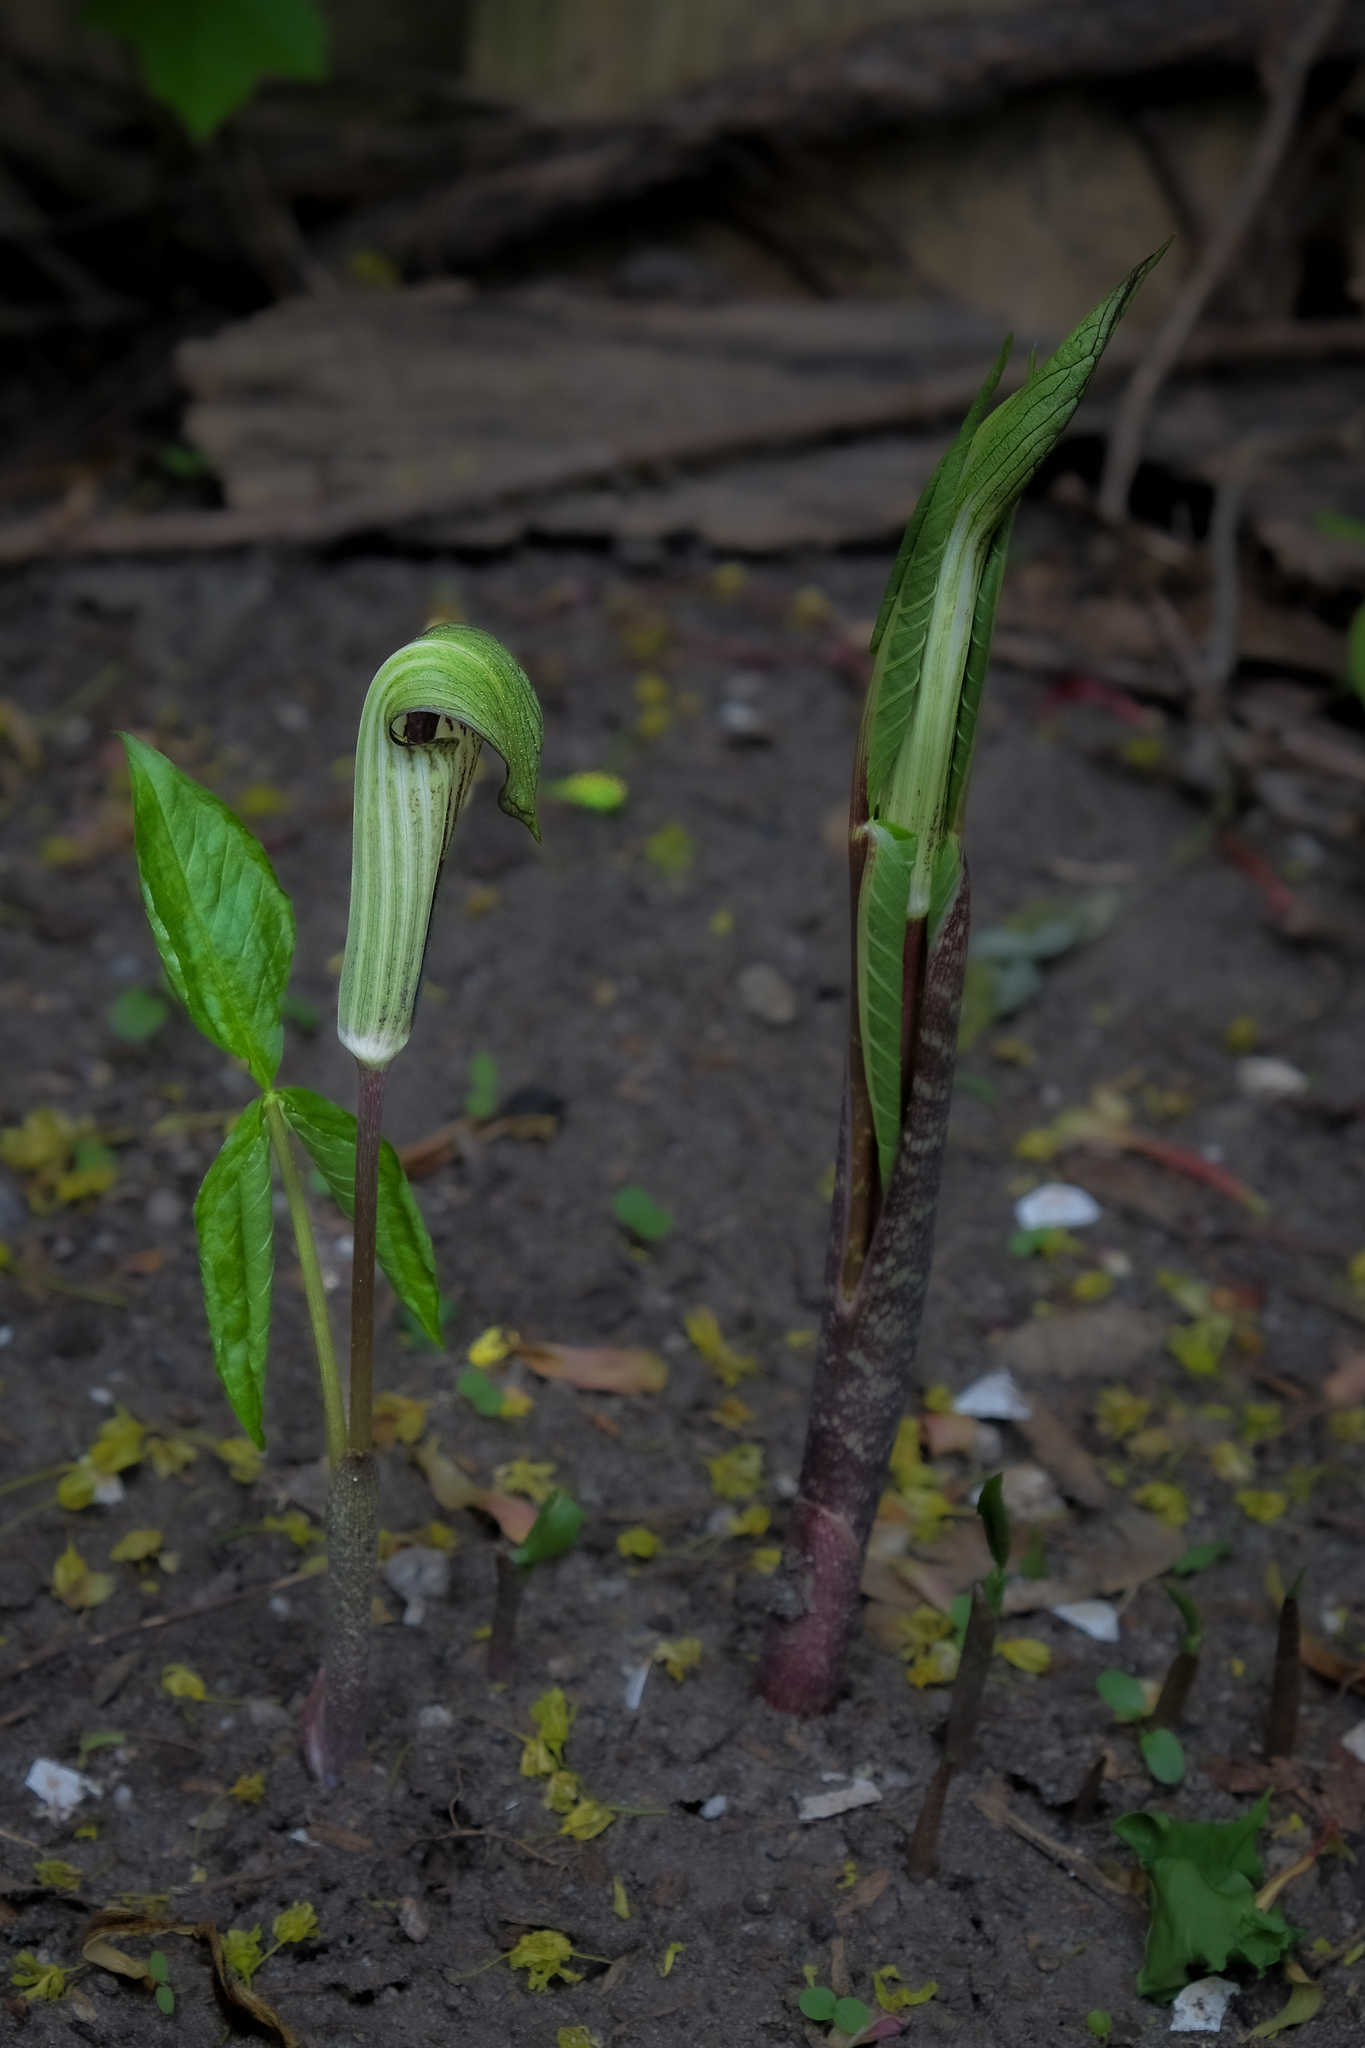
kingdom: Plantae
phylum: Tracheophyta
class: Liliopsida
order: Alismatales
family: Araceae
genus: Arisaema
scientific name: Arisaema triphyllum
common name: Jack-in-the-pulpit
